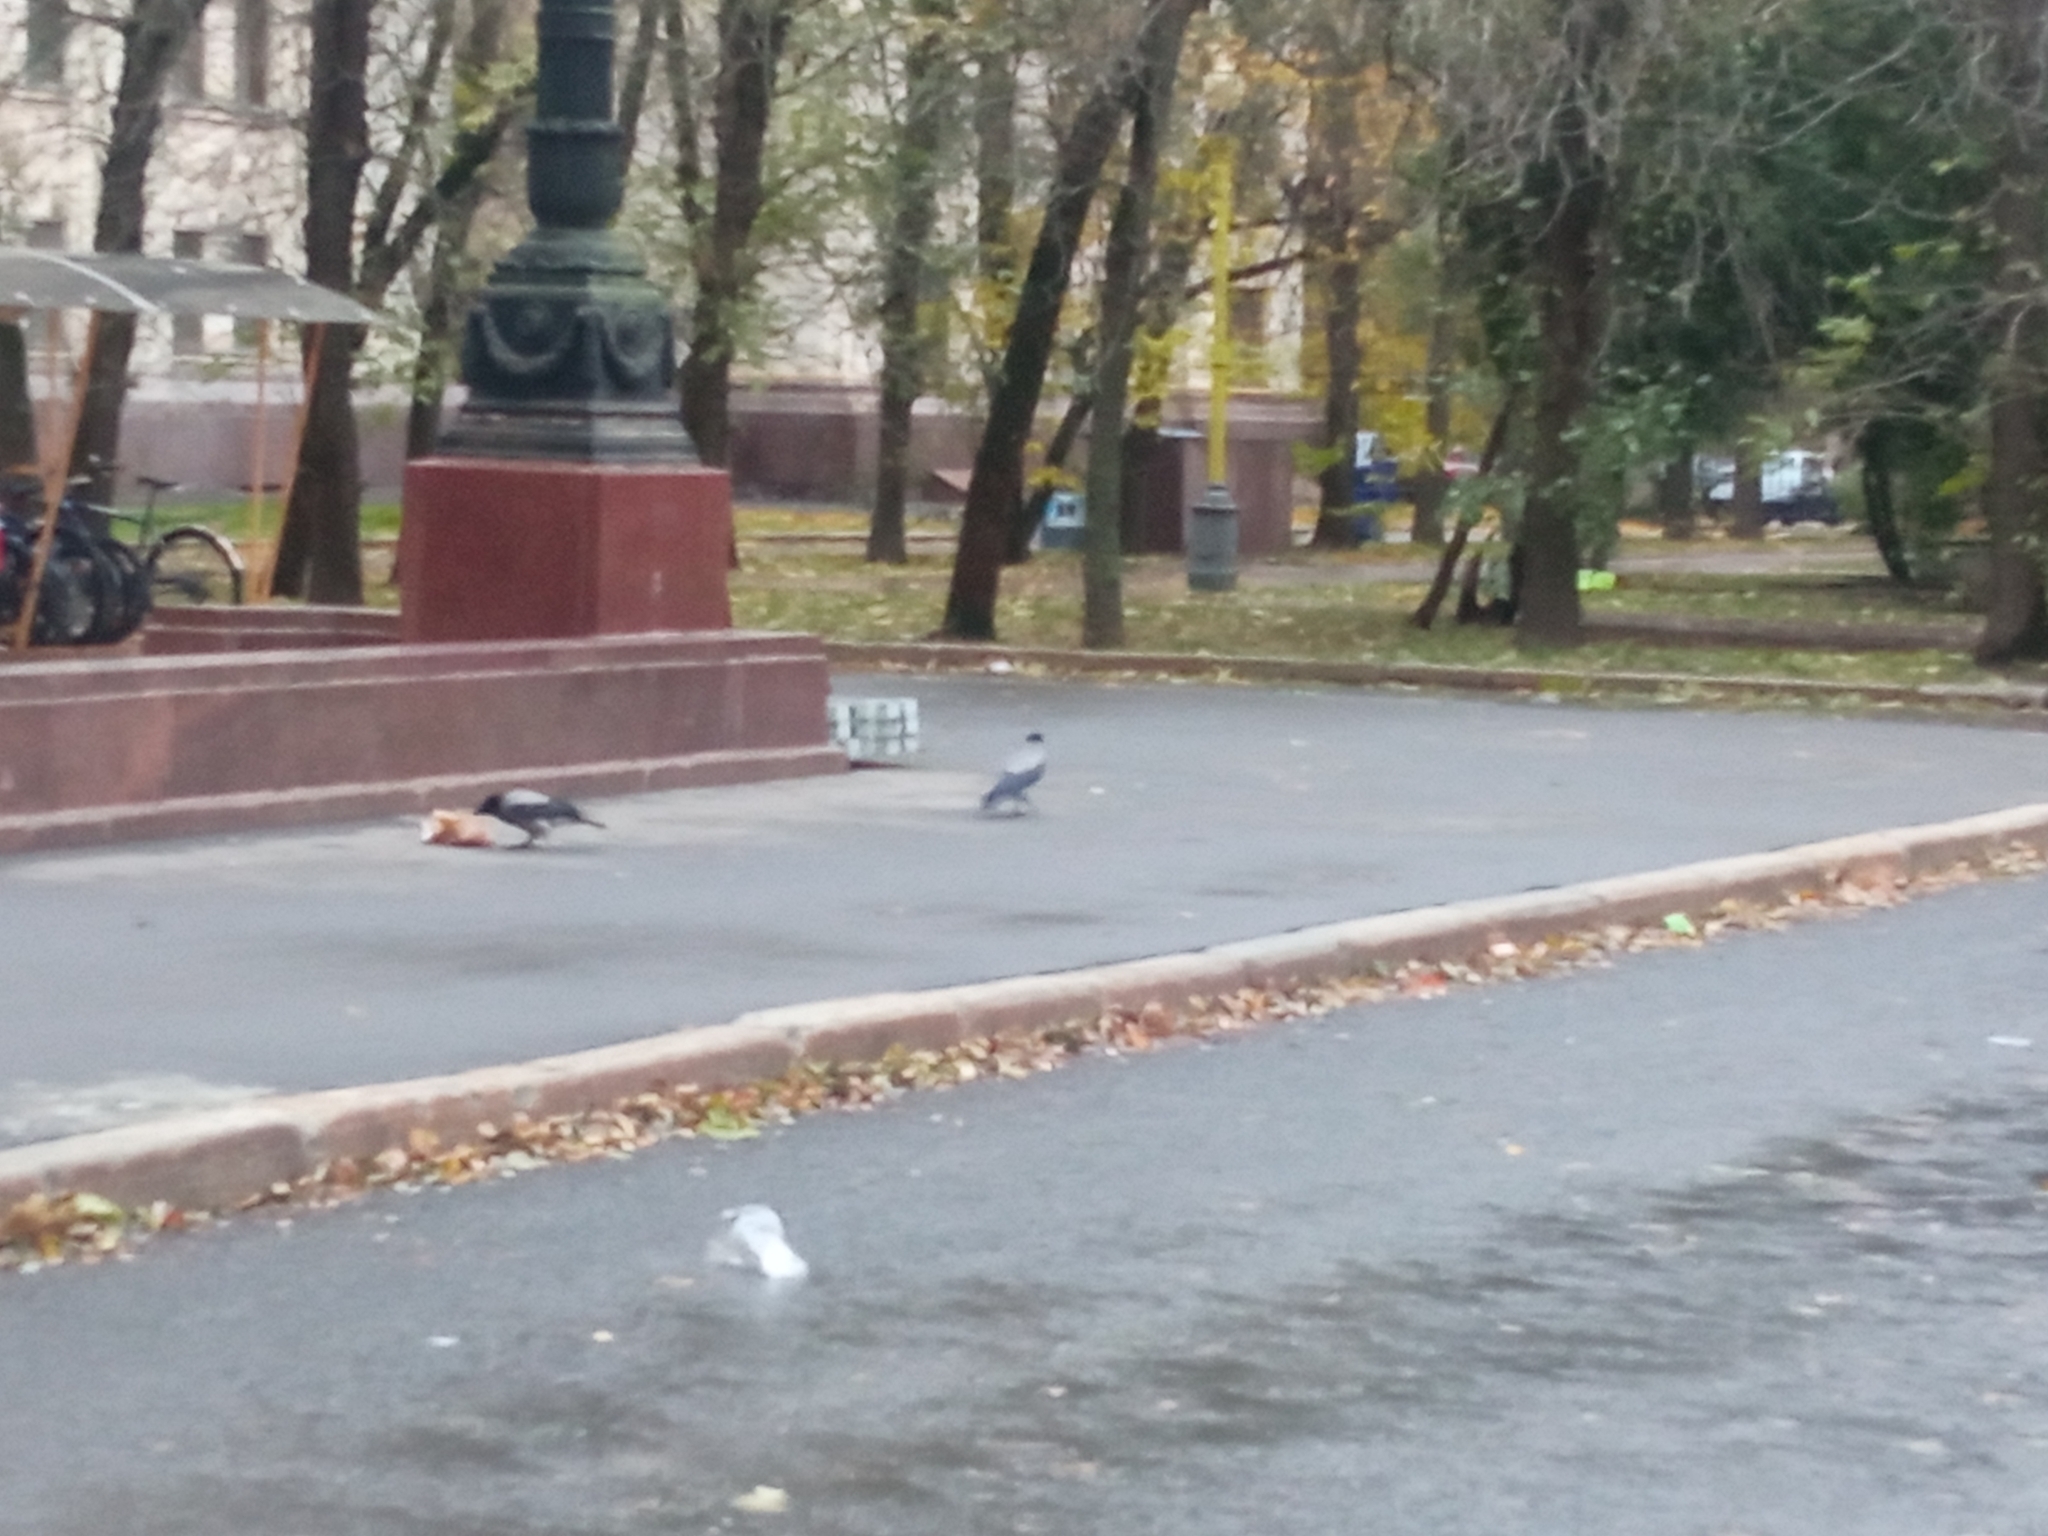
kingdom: Animalia
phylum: Chordata
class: Aves
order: Passeriformes
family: Corvidae
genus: Corvus
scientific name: Corvus cornix
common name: Hooded crow
